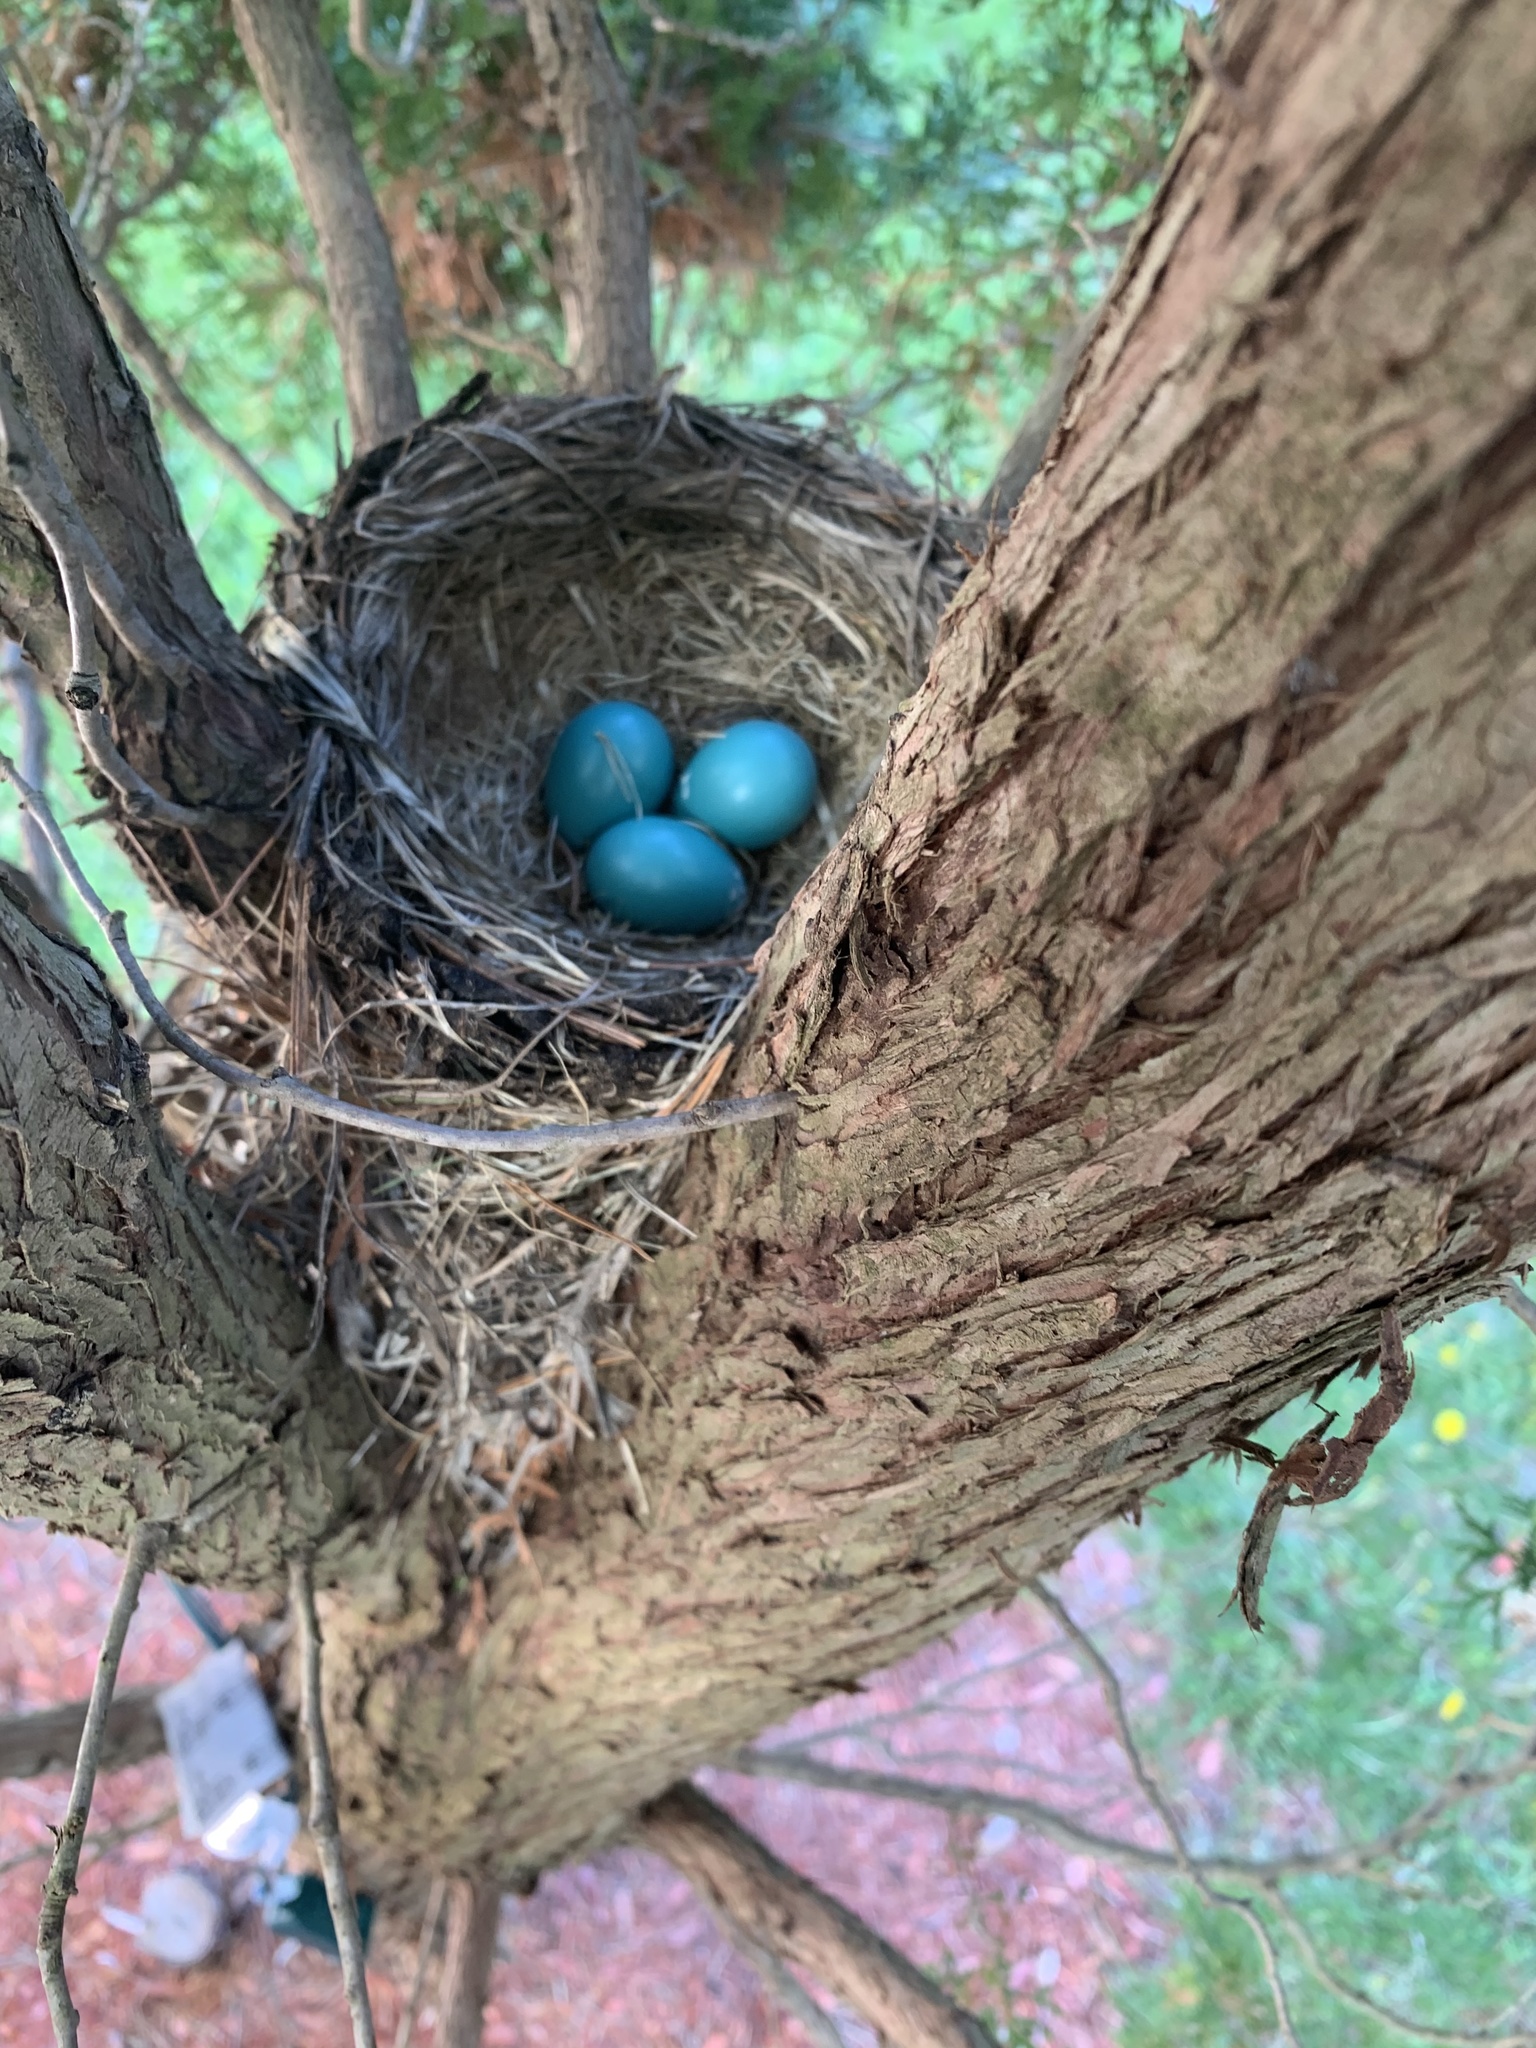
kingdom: Animalia
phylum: Chordata
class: Aves
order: Passeriformes
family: Turdidae
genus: Turdus
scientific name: Turdus migratorius
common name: American robin
